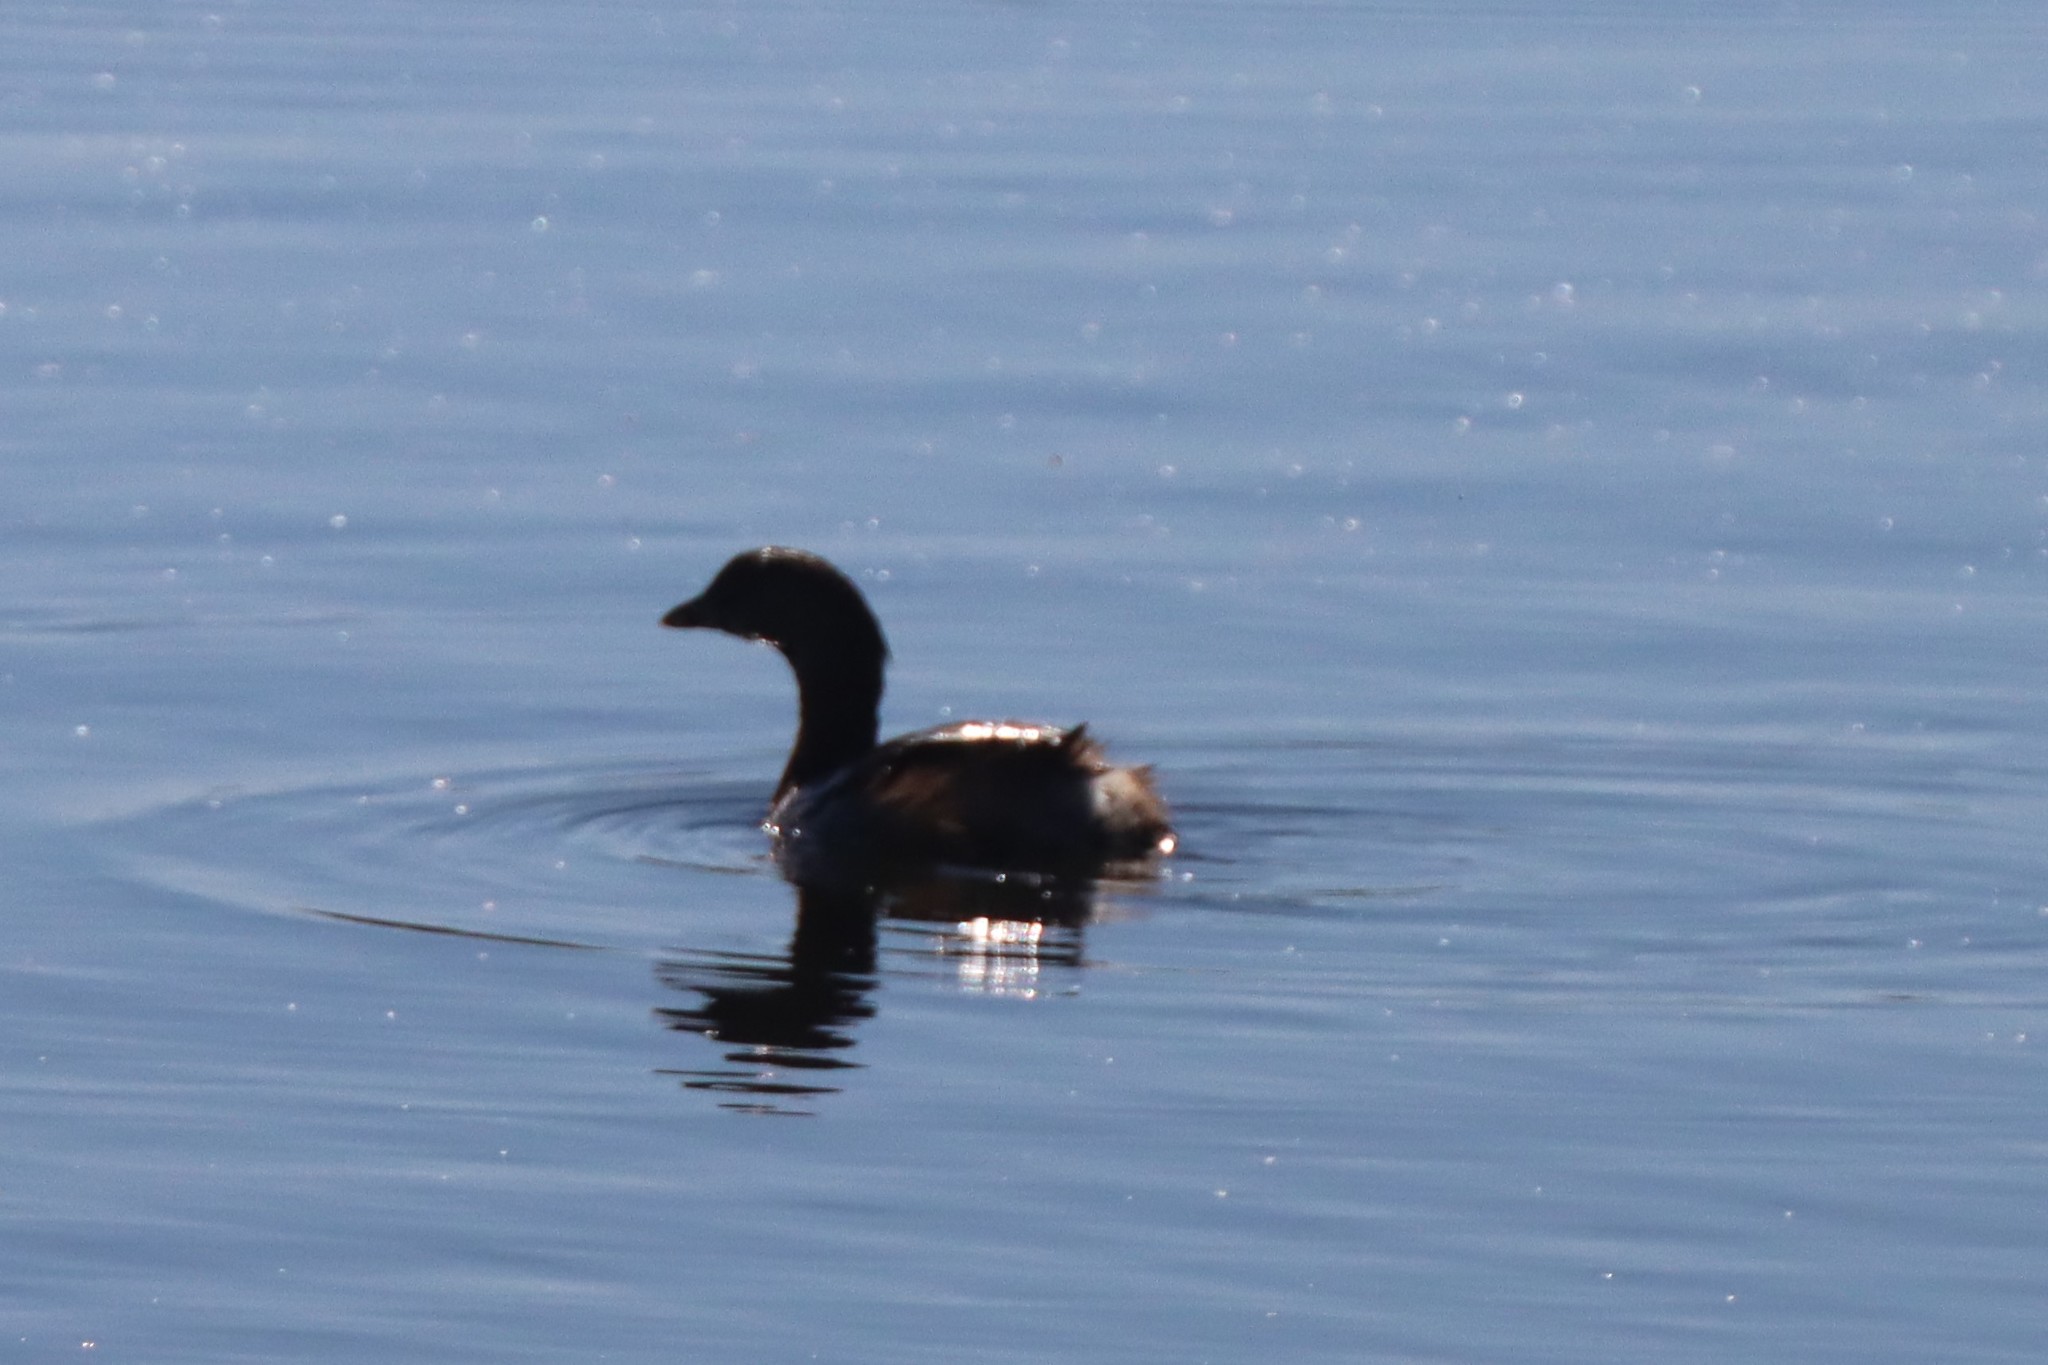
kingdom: Animalia
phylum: Chordata
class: Aves
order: Podicipediformes
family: Podicipedidae
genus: Podilymbus
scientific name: Podilymbus podiceps
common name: Pied-billed grebe
